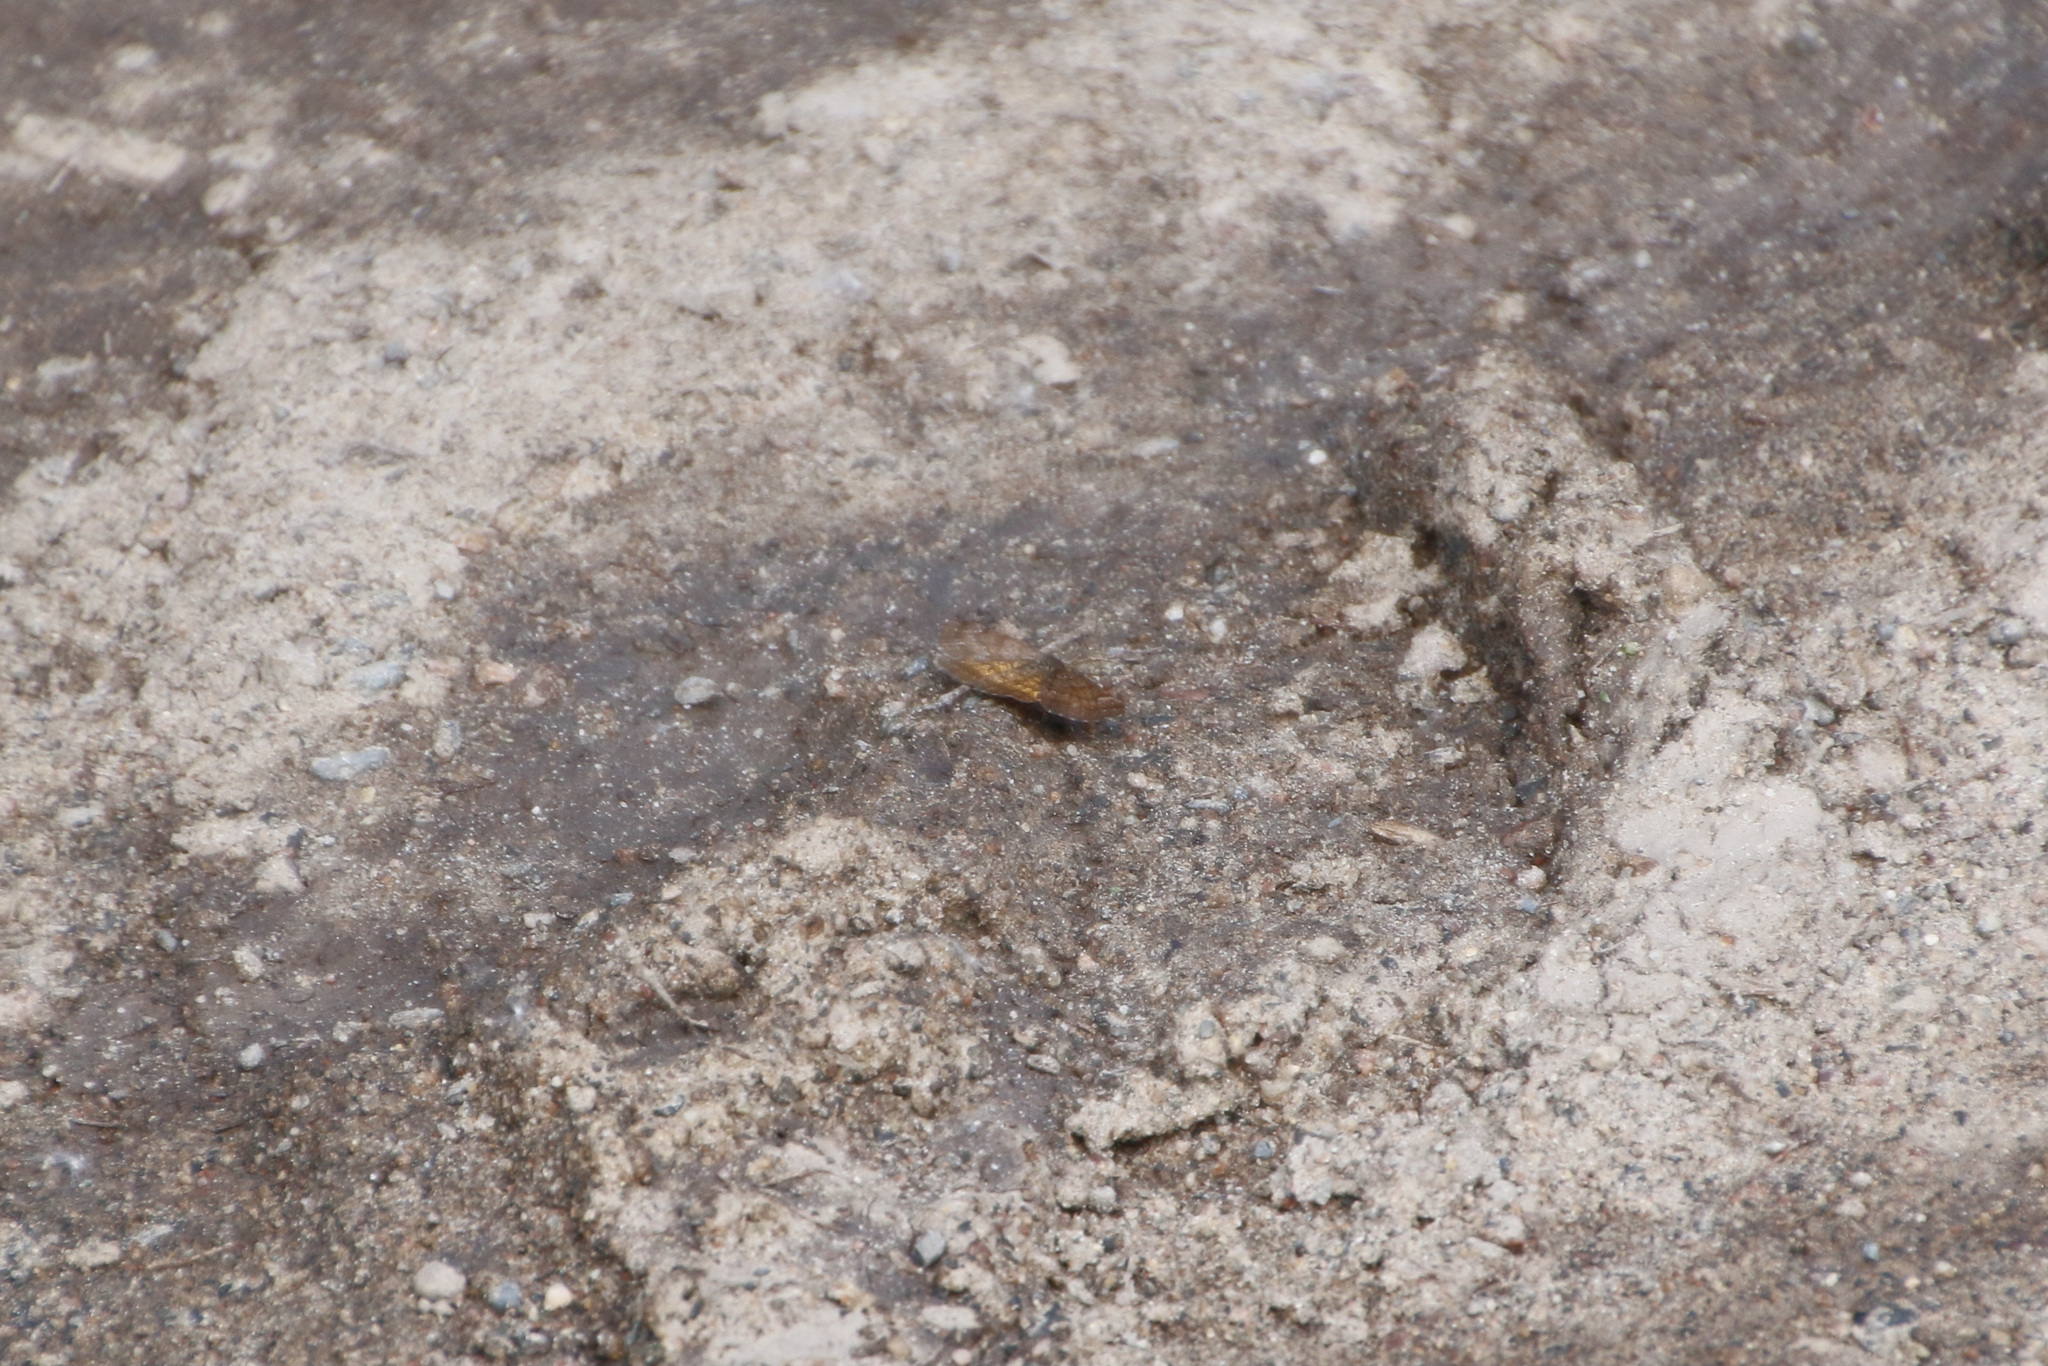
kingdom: Animalia
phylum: Arthropoda
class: Insecta
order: Lepidoptera
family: Geometridae
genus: Ematurga
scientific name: Ematurga amitaria
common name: Cranberry spanworm moth
